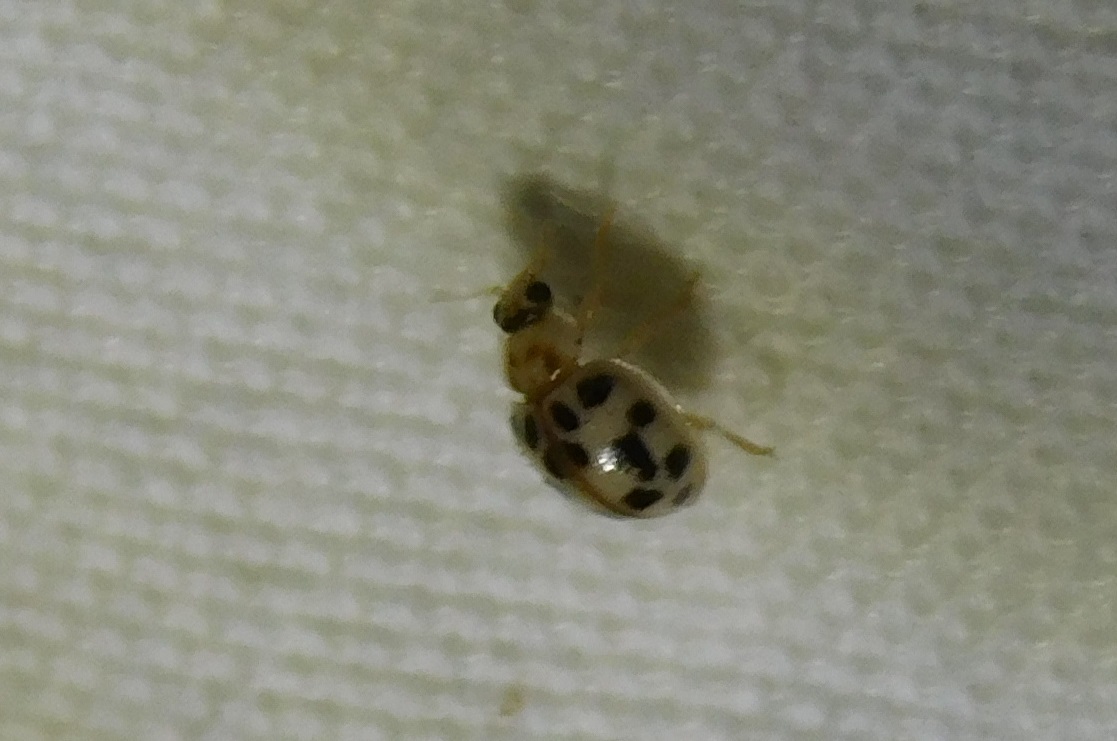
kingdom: Animalia
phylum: Arthropoda
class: Insecta
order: Coleoptera
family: Coccinellidae
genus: Psyllobora
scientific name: Psyllobora parvinotata
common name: Small-spotted psyllobora
